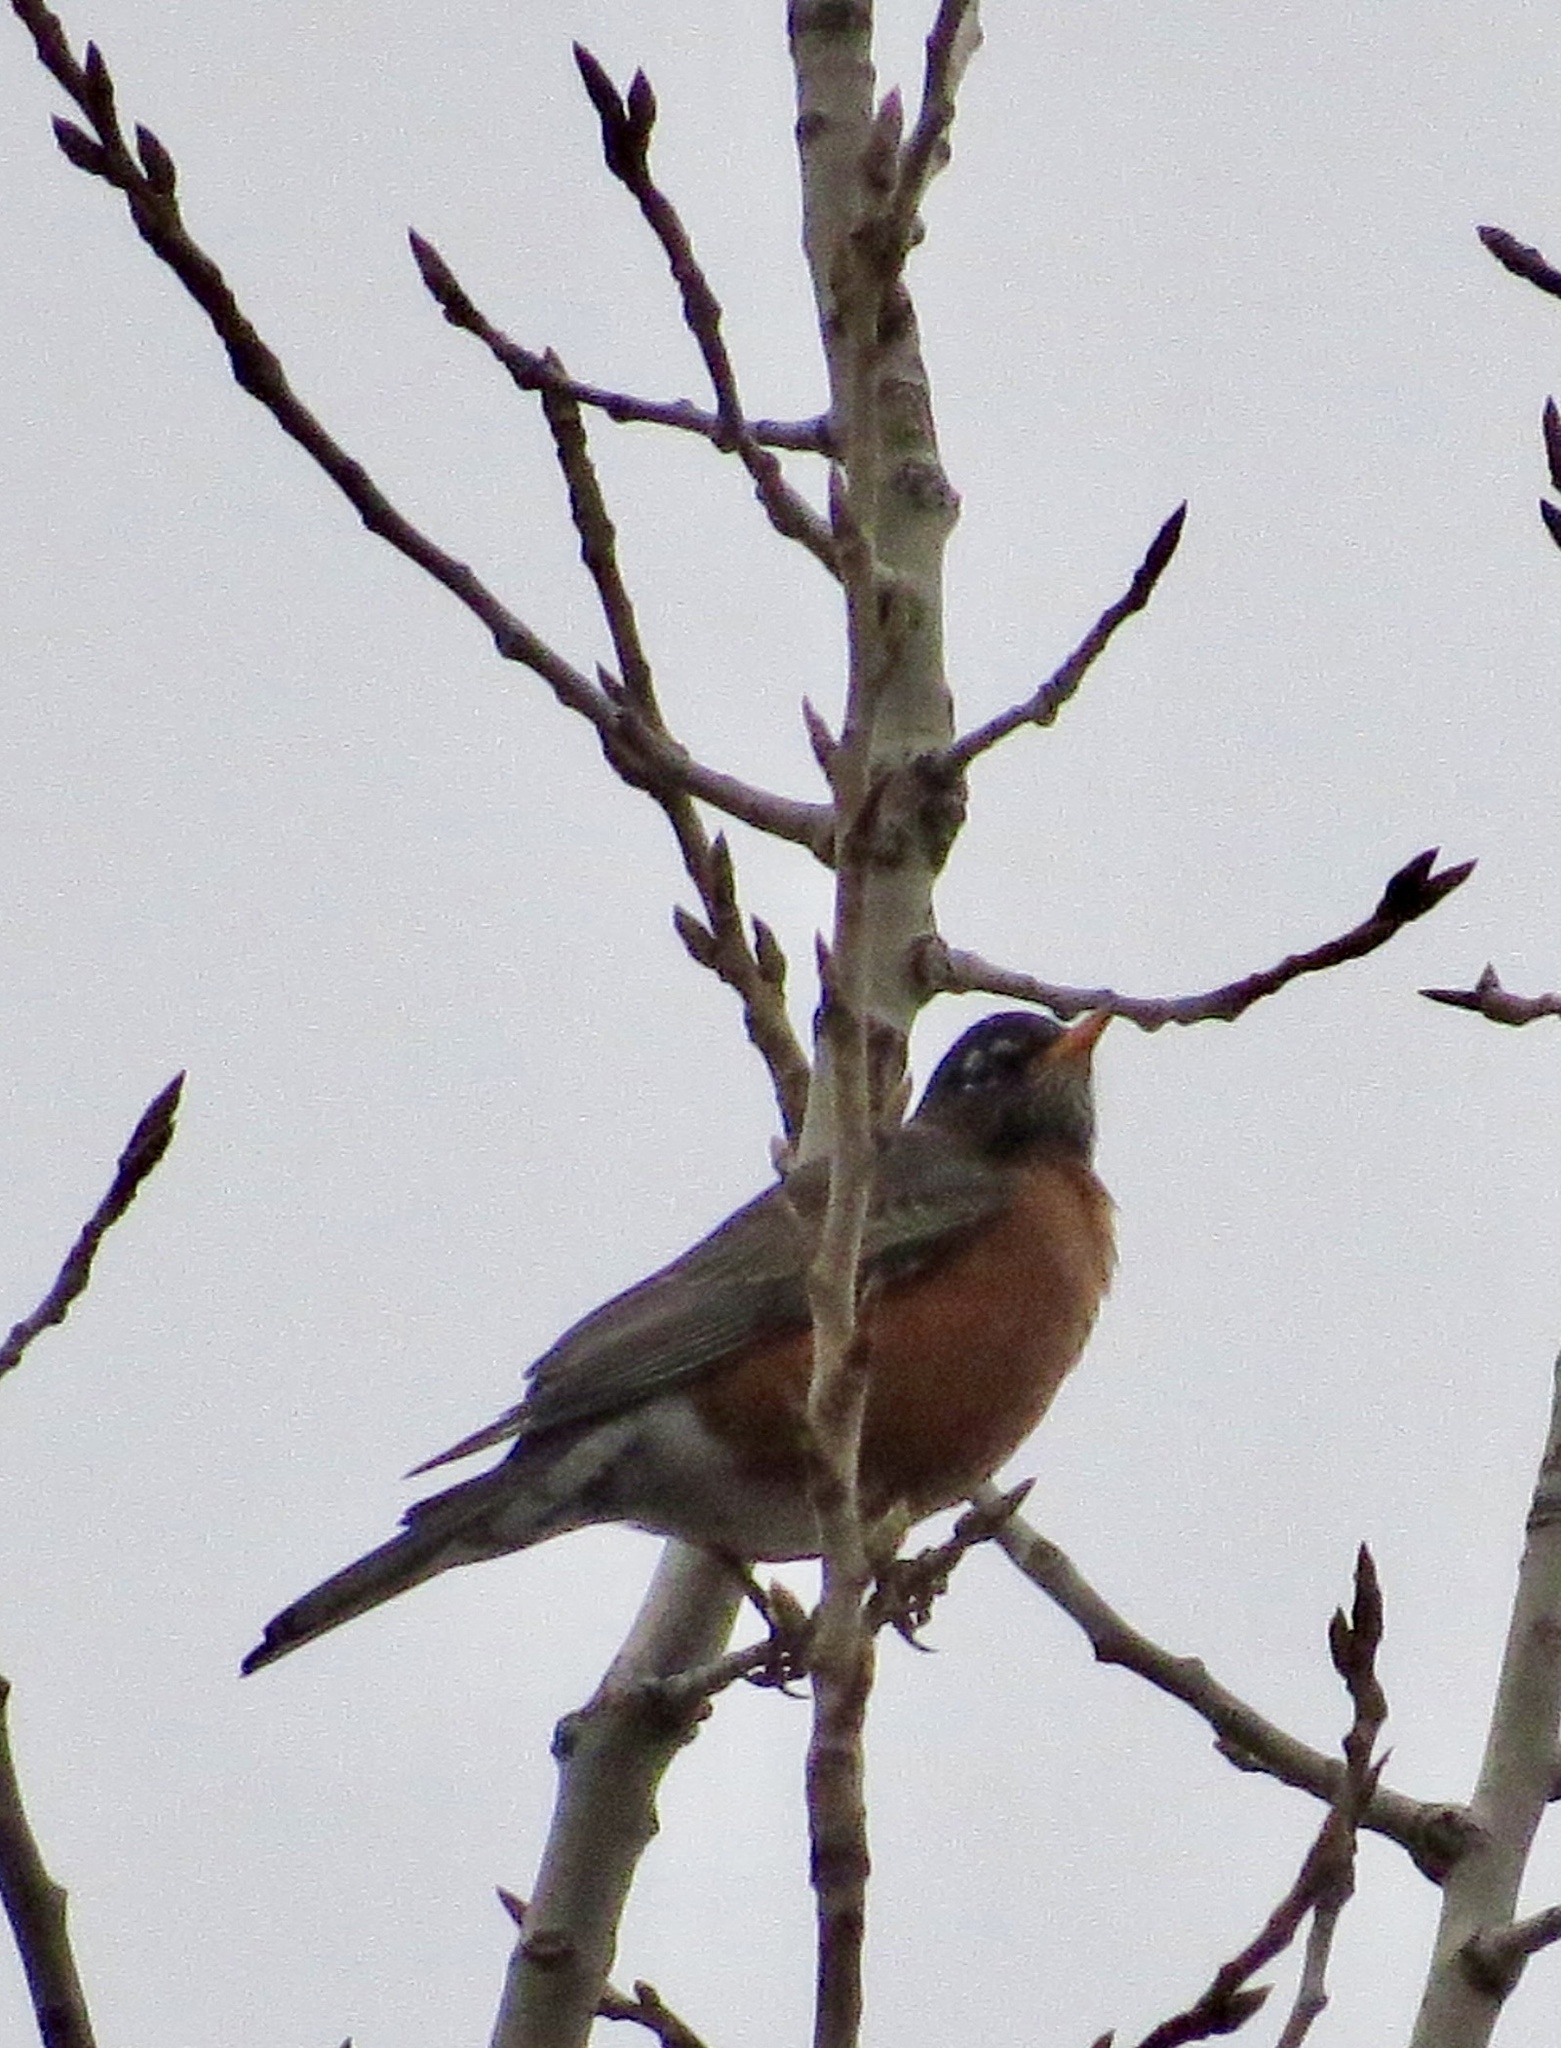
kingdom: Animalia
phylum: Chordata
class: Aves
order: Passeriformes
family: Turdidae
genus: Turdus
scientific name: Turdus migratorius
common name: American robin
